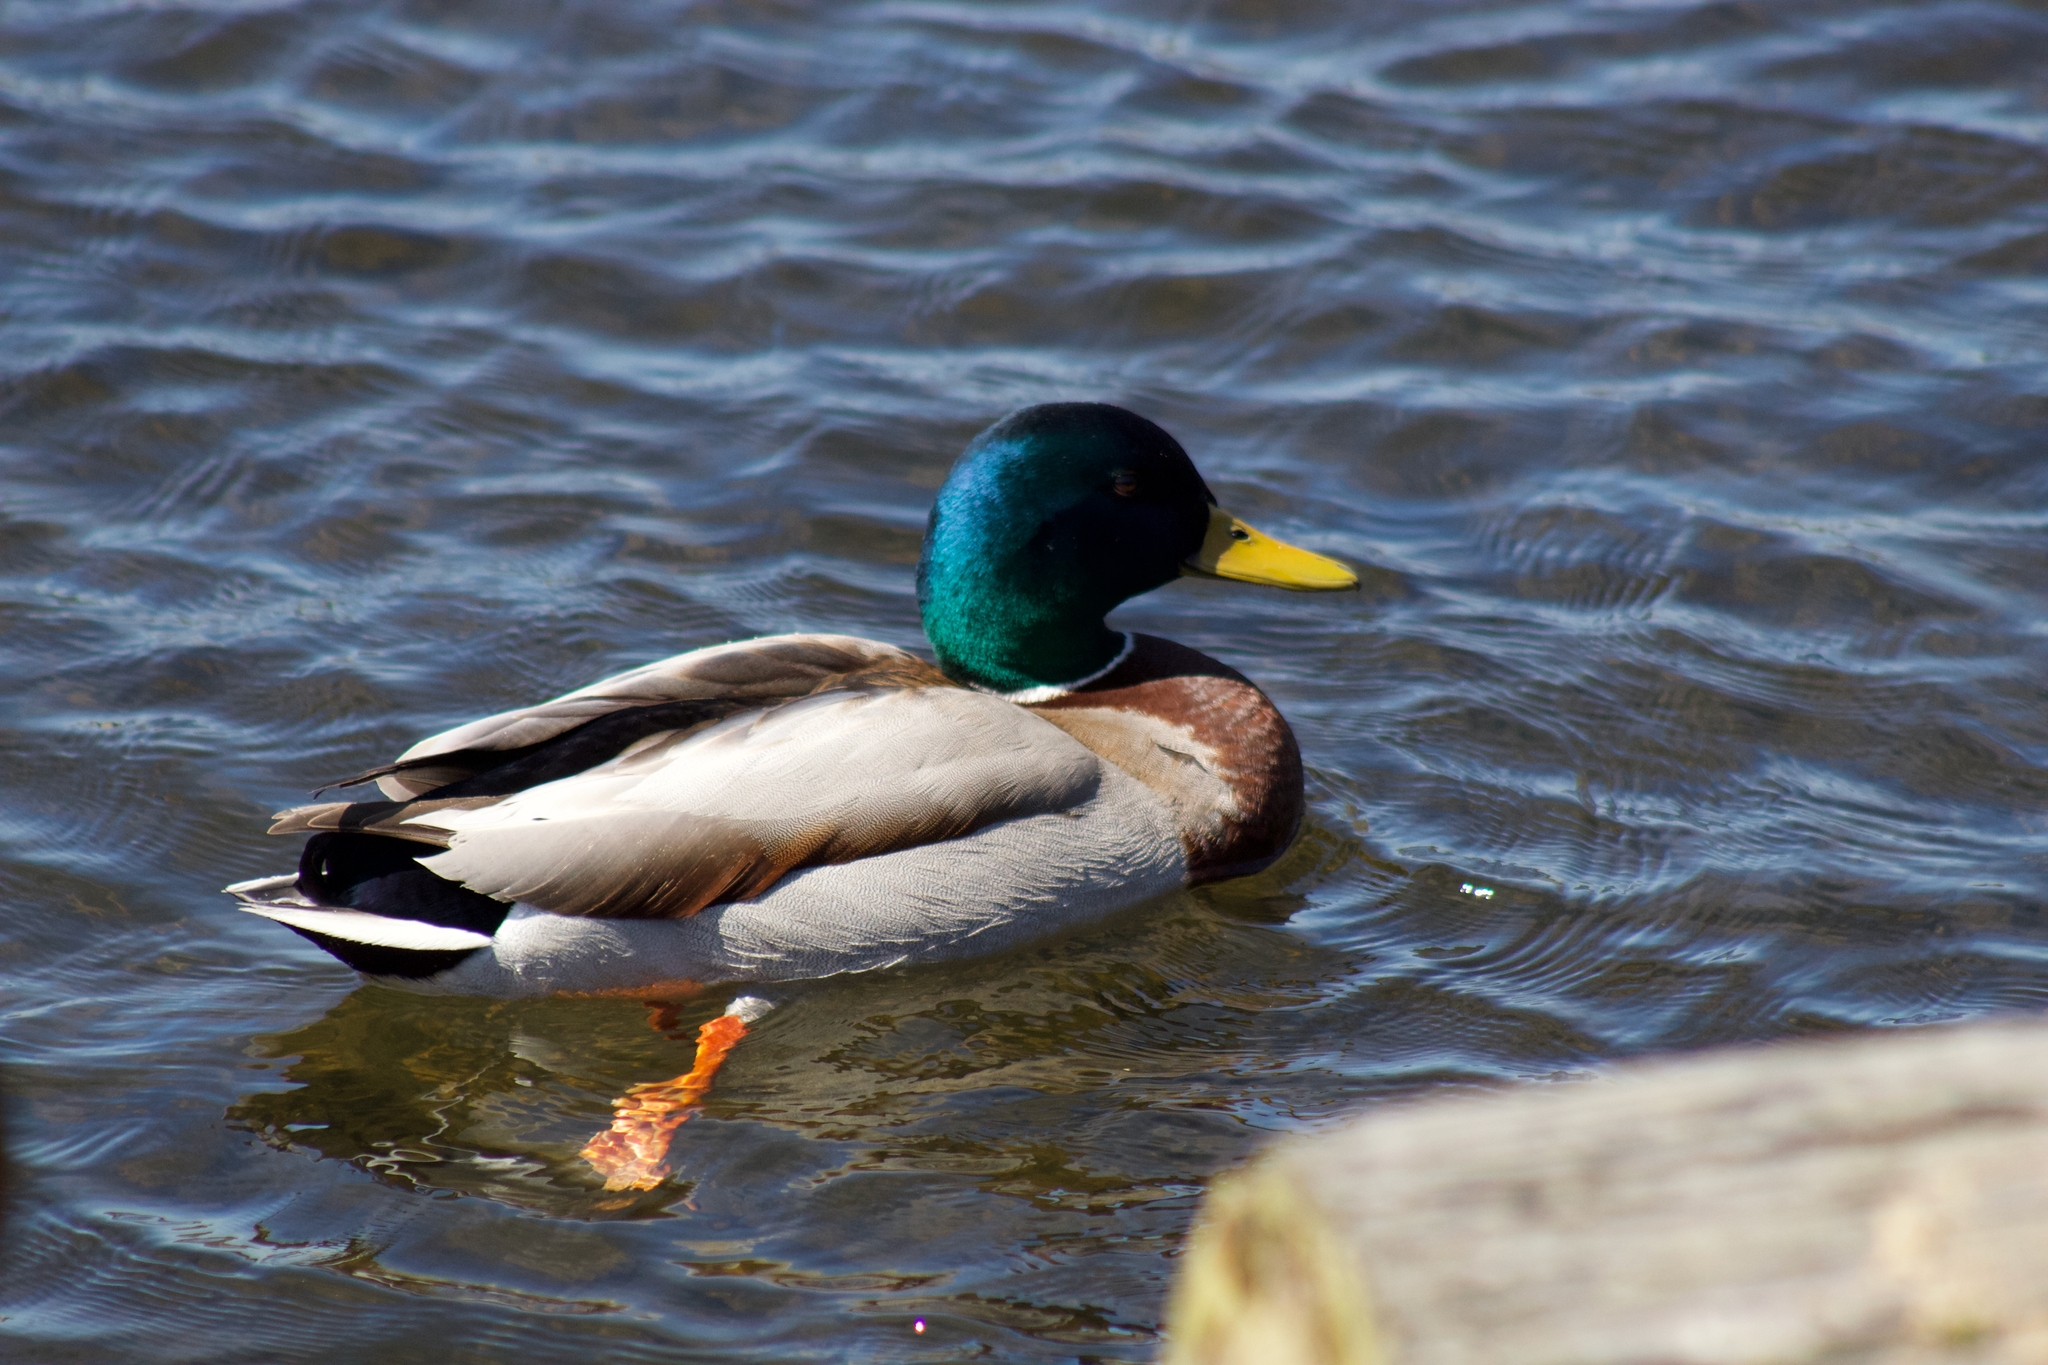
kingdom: Animalia
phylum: Chordata
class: Aves
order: Anseriformes
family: Anatidae
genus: Anas
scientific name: Anas platyrhynchos
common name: Mallard
